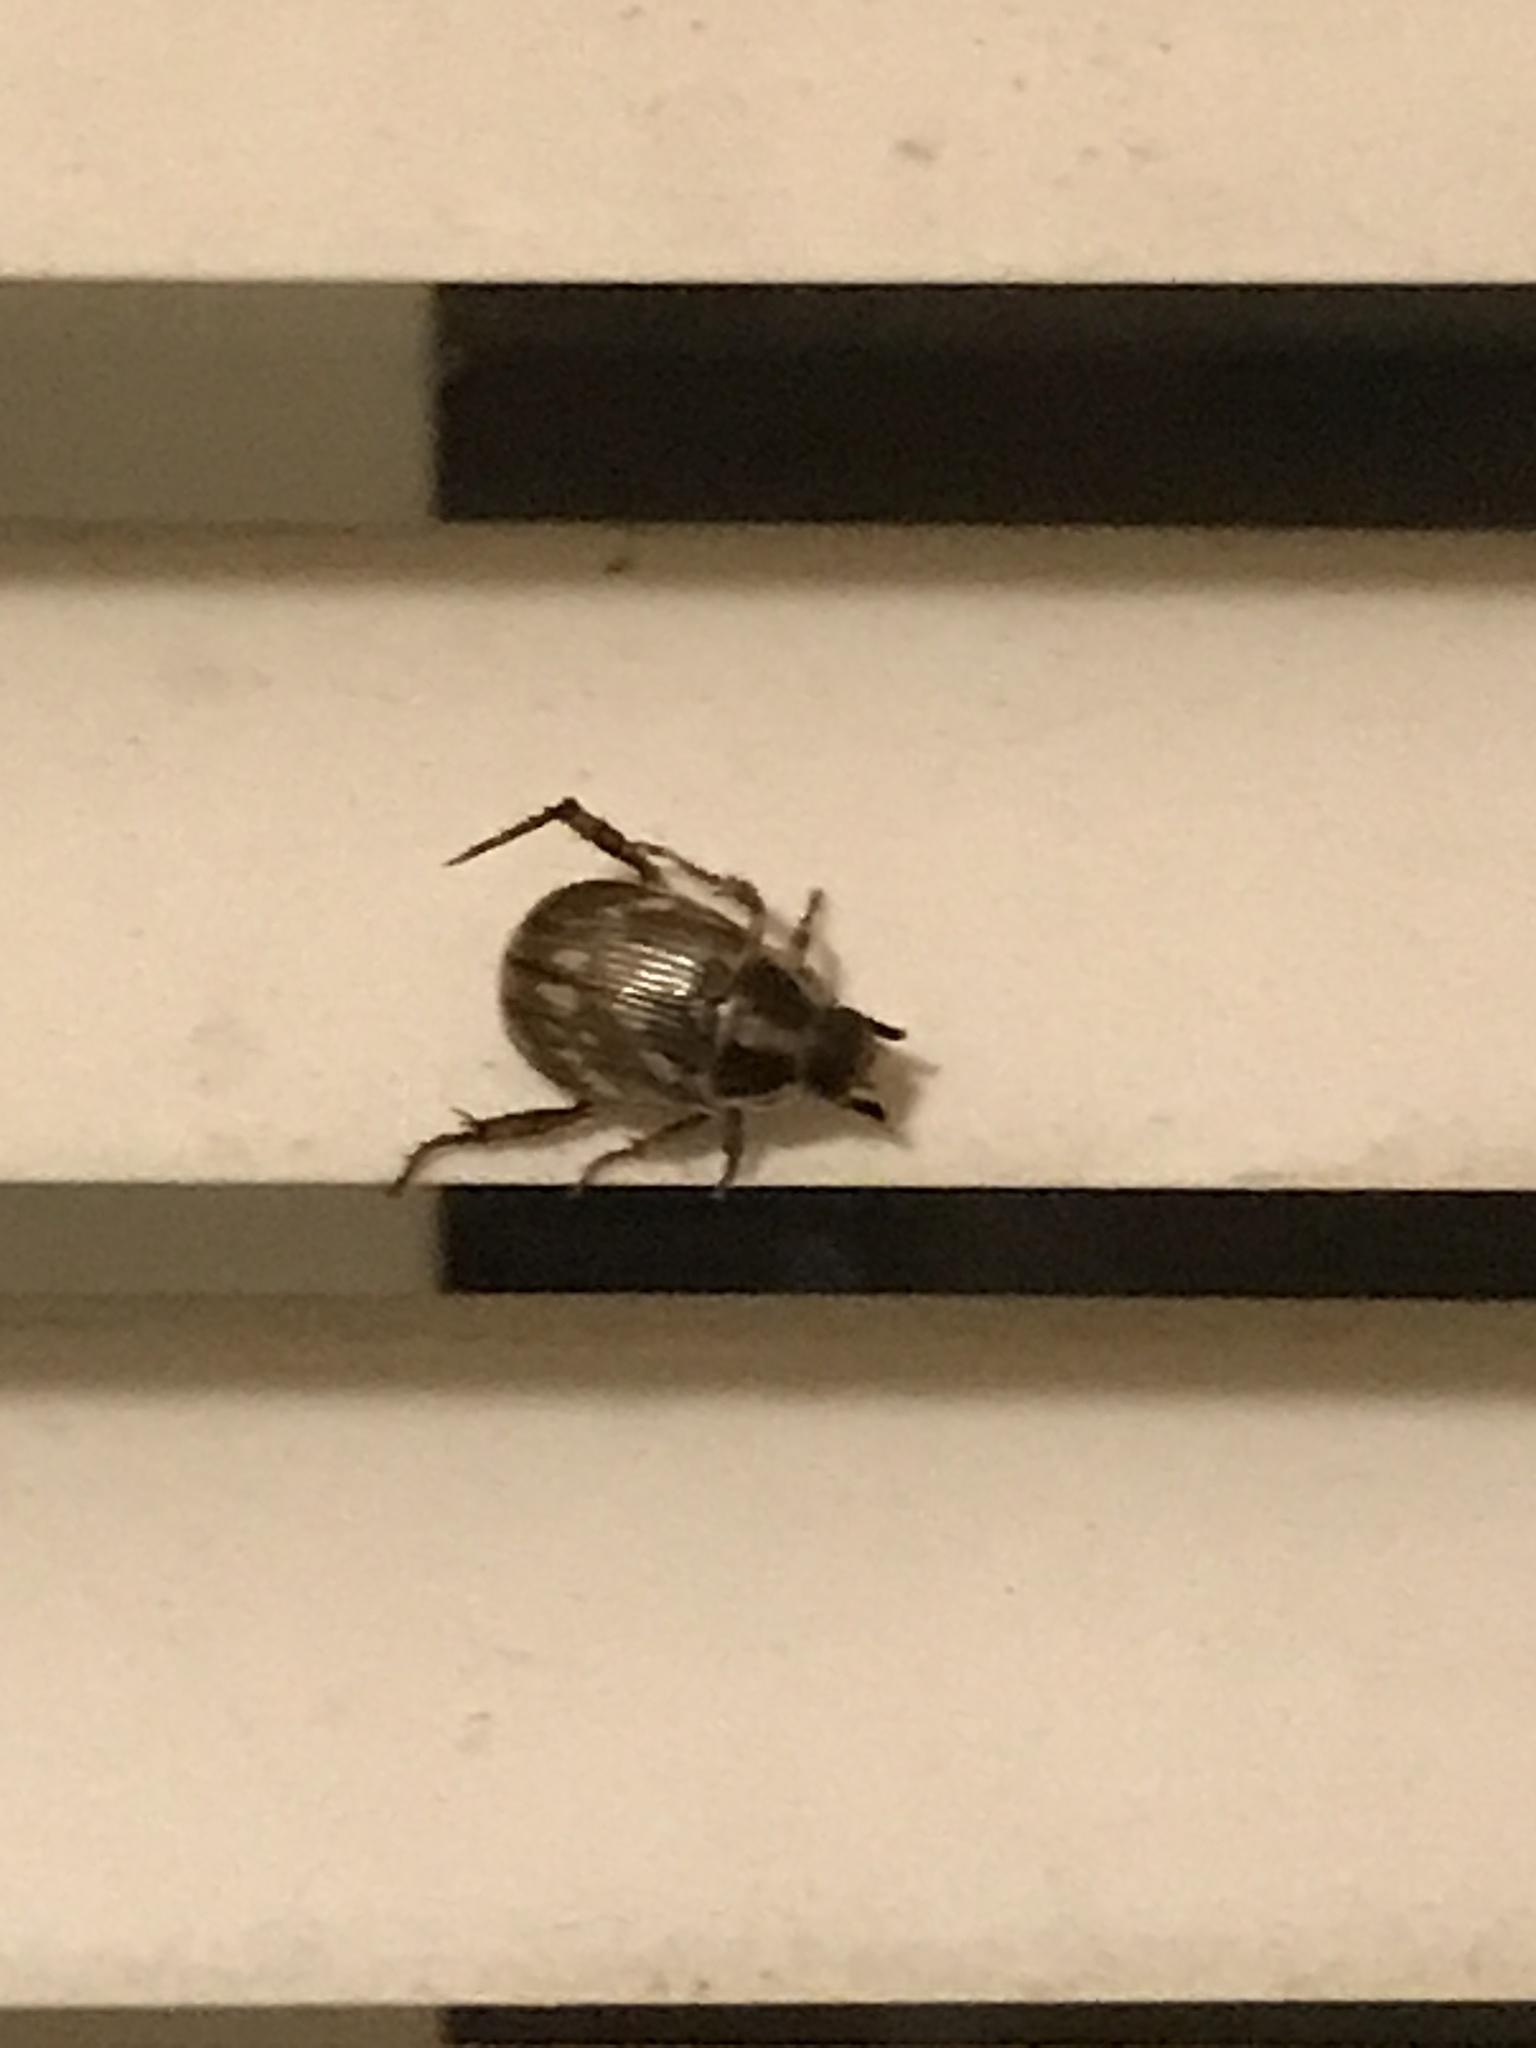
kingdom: Animalia
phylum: Arthropoda
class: Insecta
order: Coleoptera
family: Scarabaeidae
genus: Exomala
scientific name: Exomala orientalis
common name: Oriental beetle
